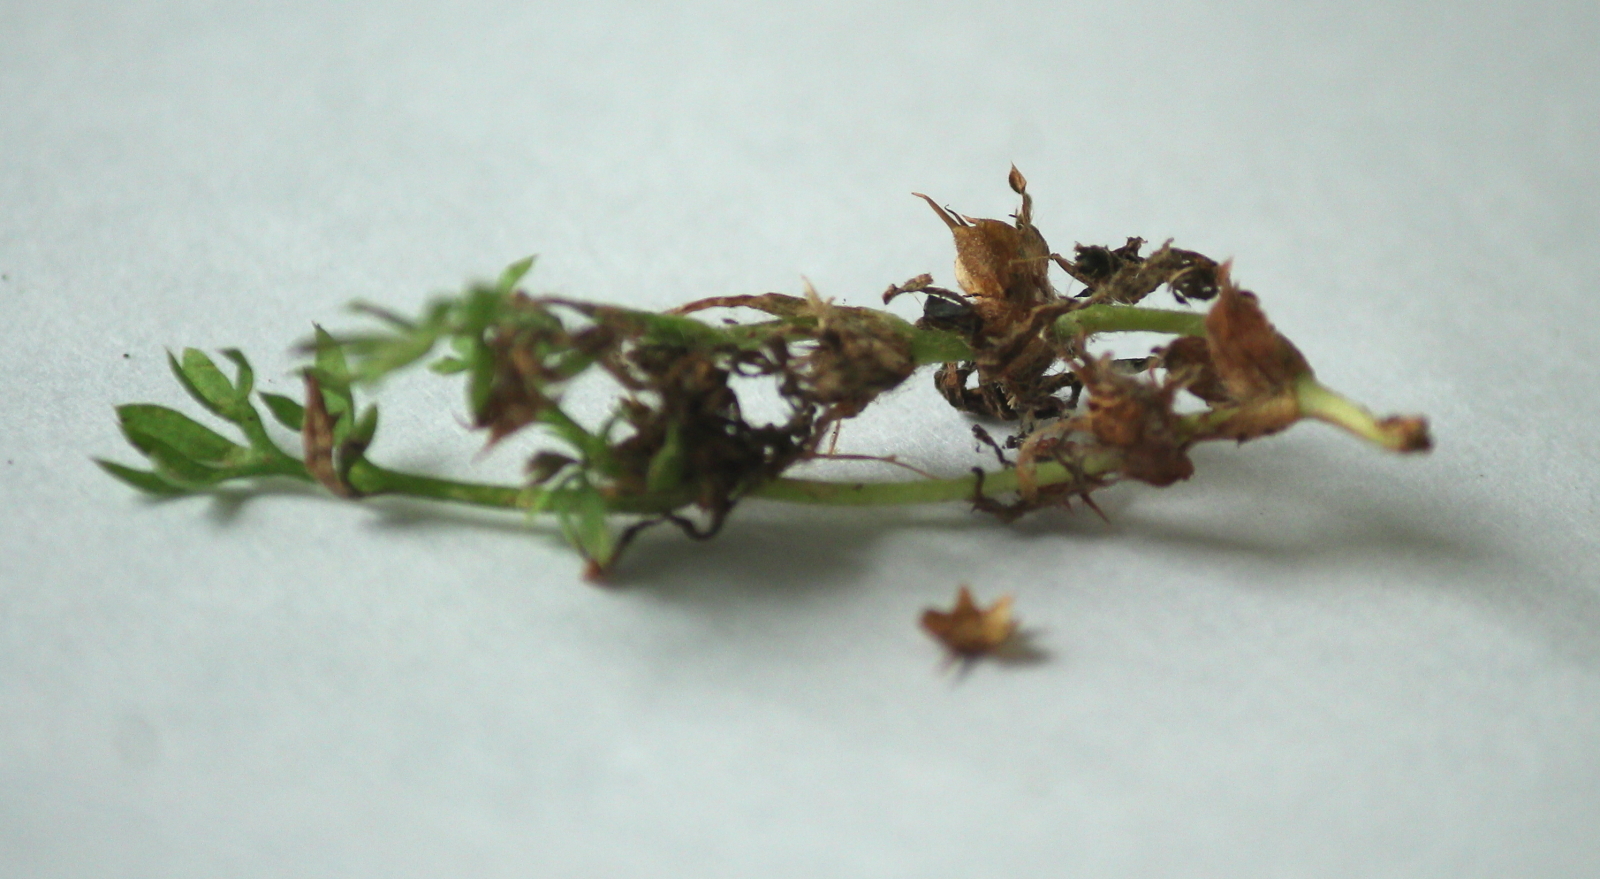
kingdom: Plantae
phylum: Tracheophyta
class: Magnoliopsida
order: Asterales
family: Asteraceae
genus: Soliva
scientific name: Soliva sessilis
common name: Field burrweed
